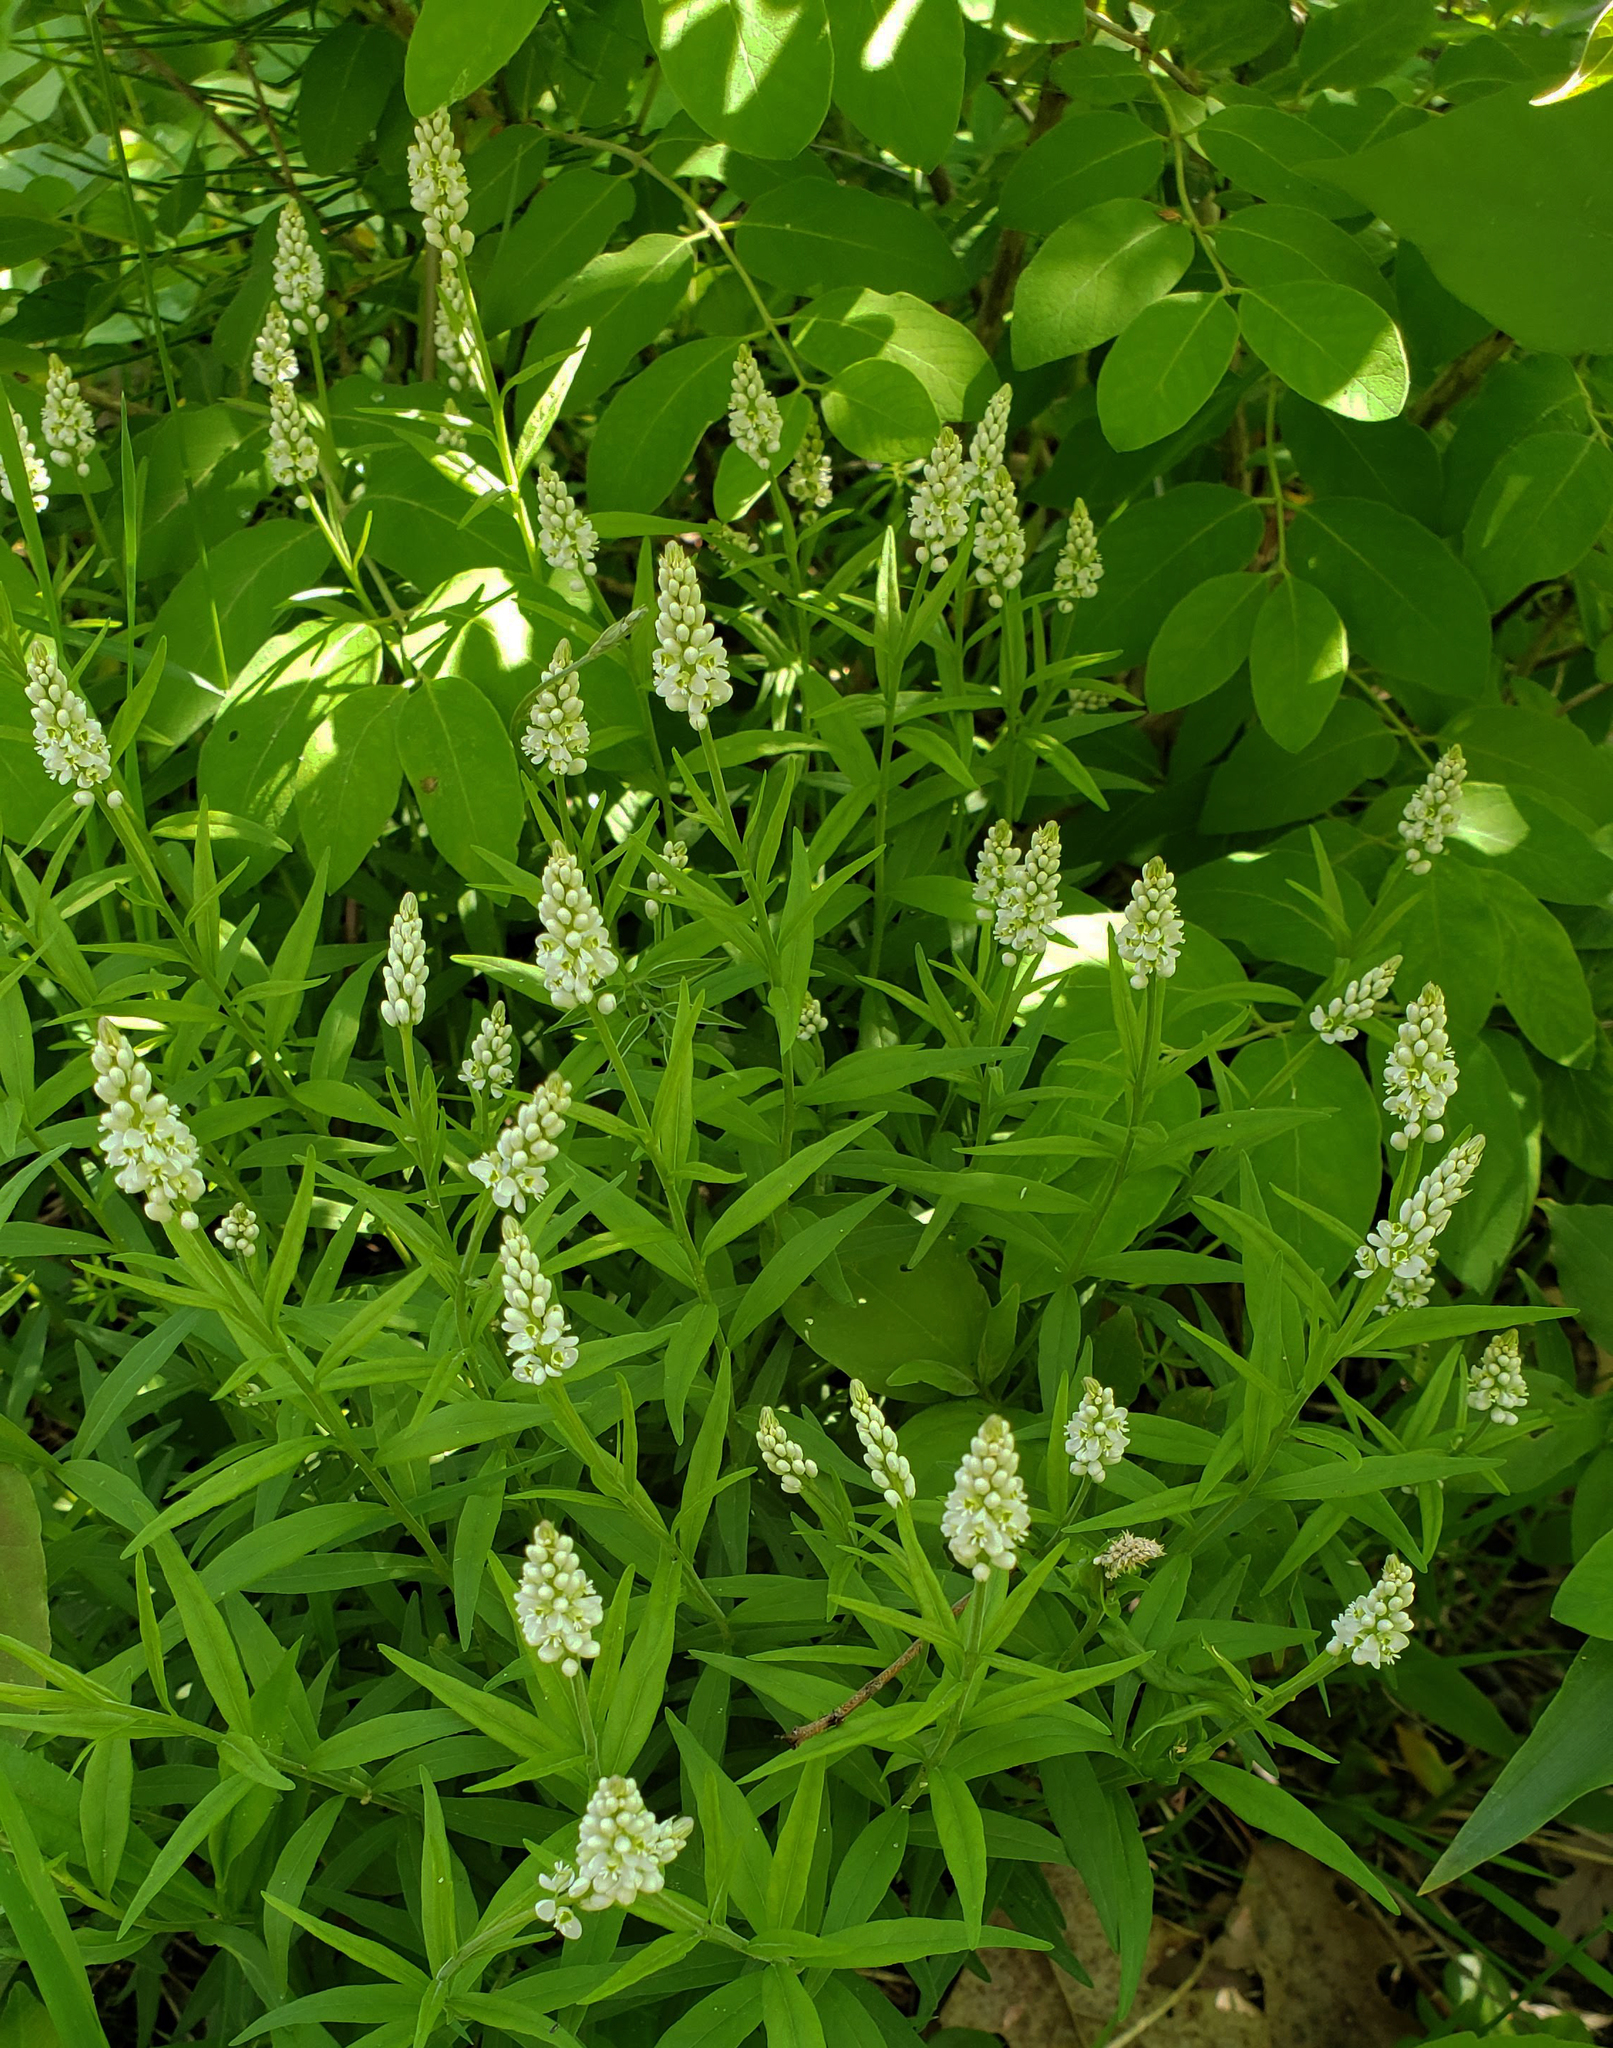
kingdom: Plantae
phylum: Tracheophyta
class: Magnoliopsida
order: Fabales
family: Polygalaceae
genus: Polygala
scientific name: Polygala senega
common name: Seneca snakeroot
